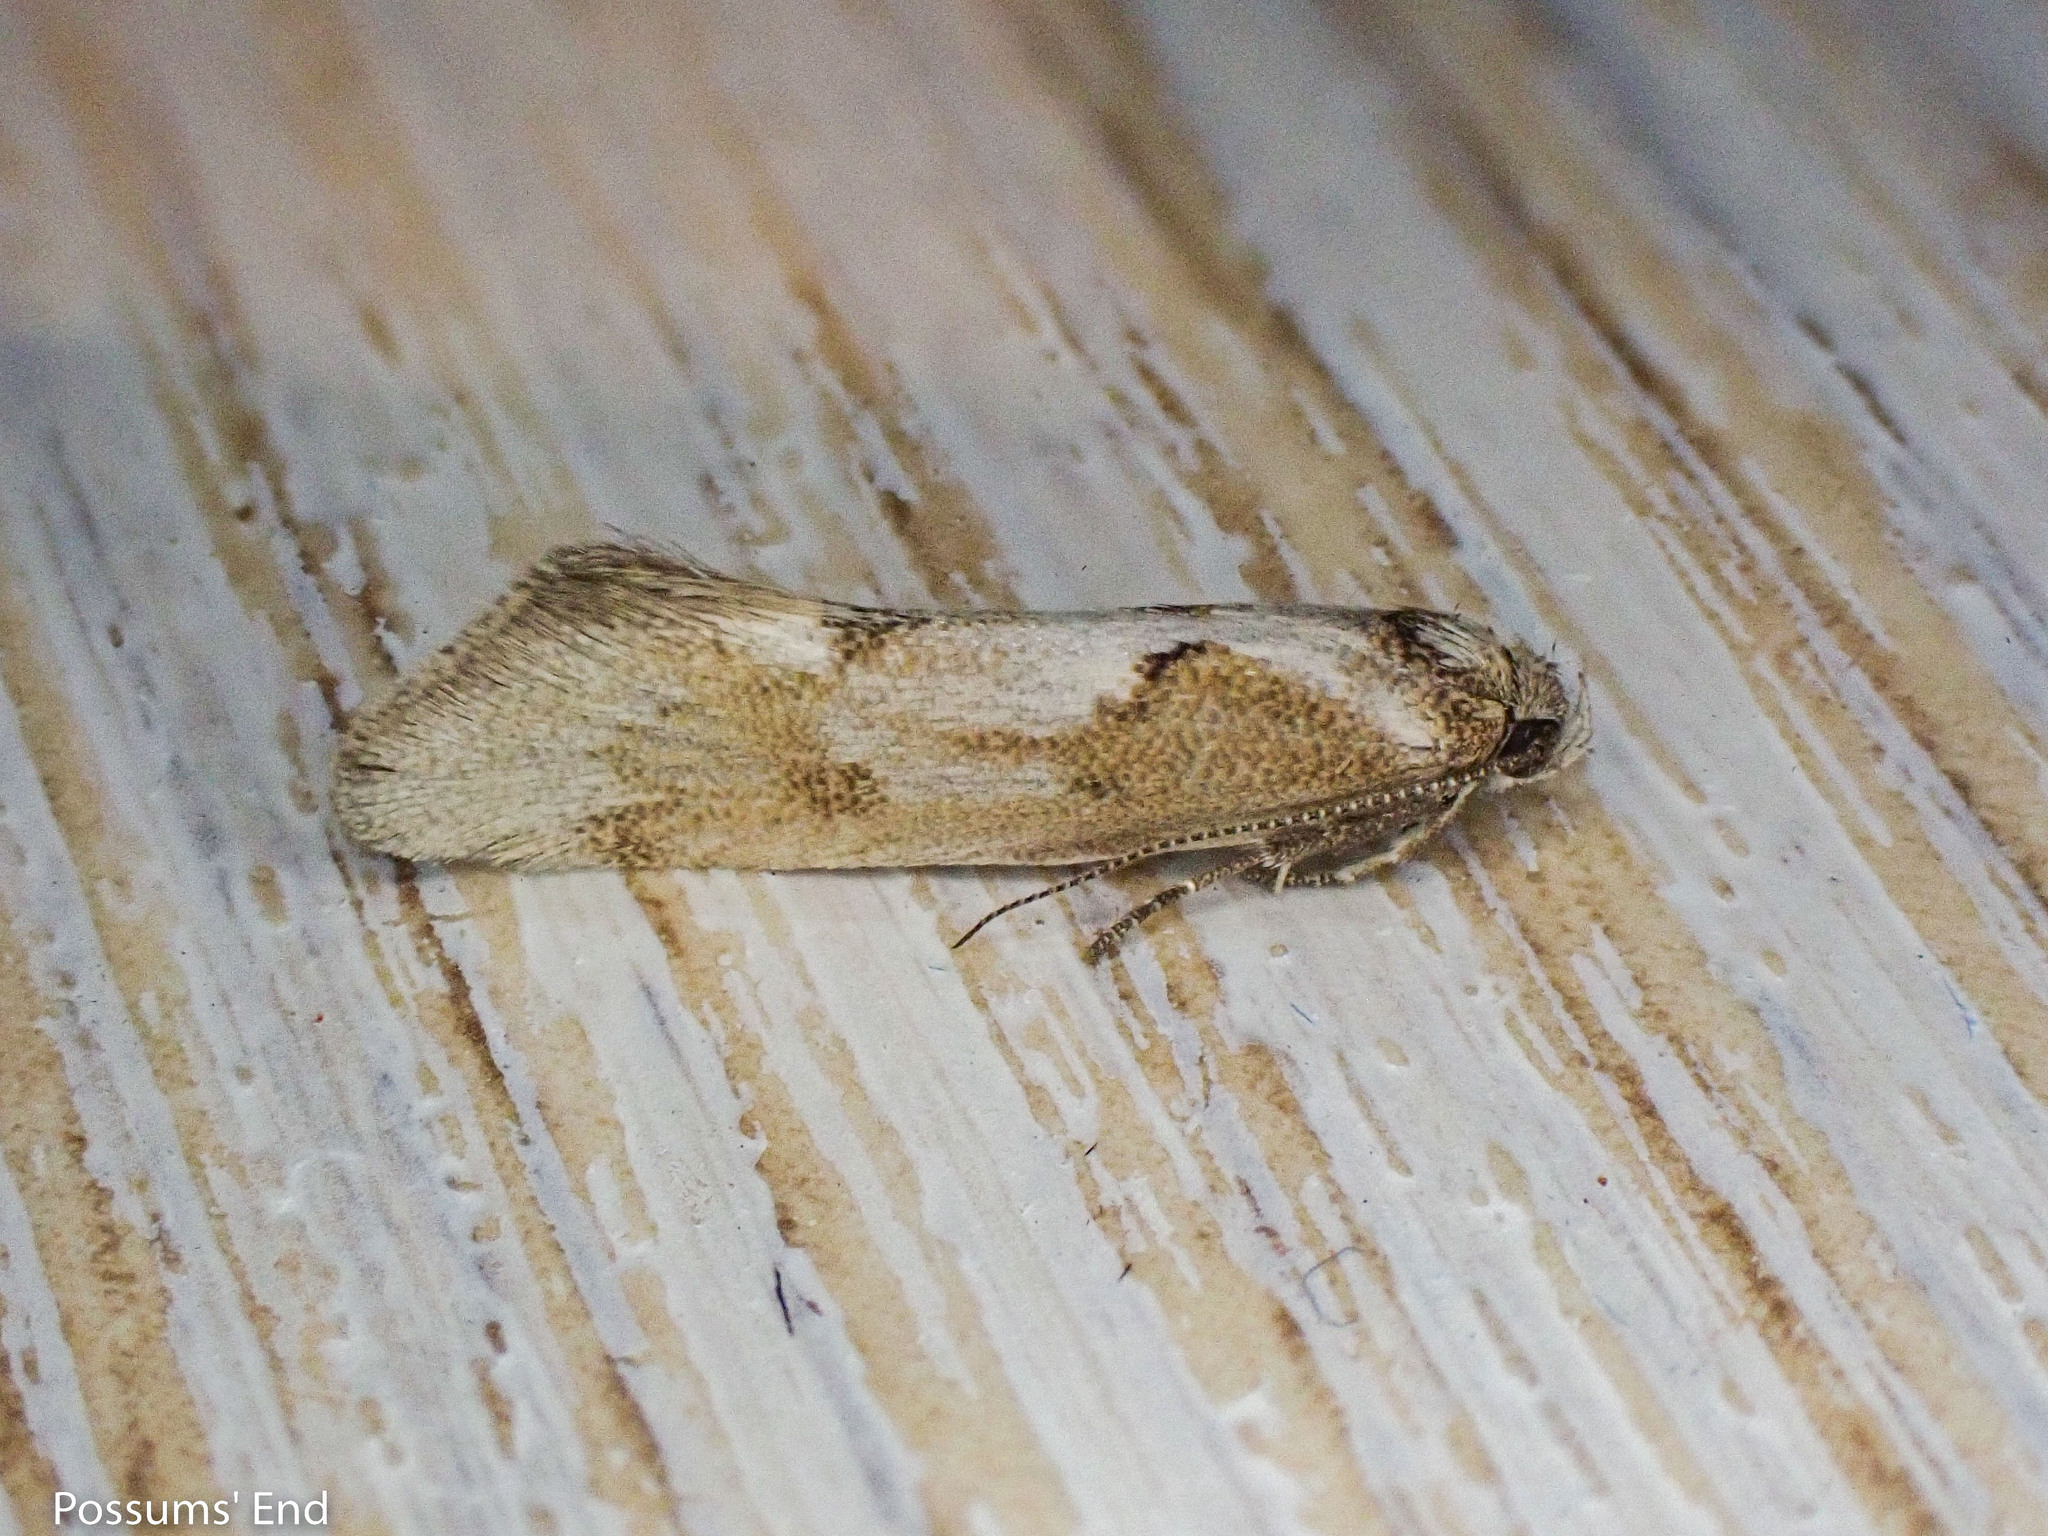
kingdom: Animalia
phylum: Arthropoda
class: Insecta
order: Lepidoptera
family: Oecophoridae
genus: Tingena
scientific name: Tingena
